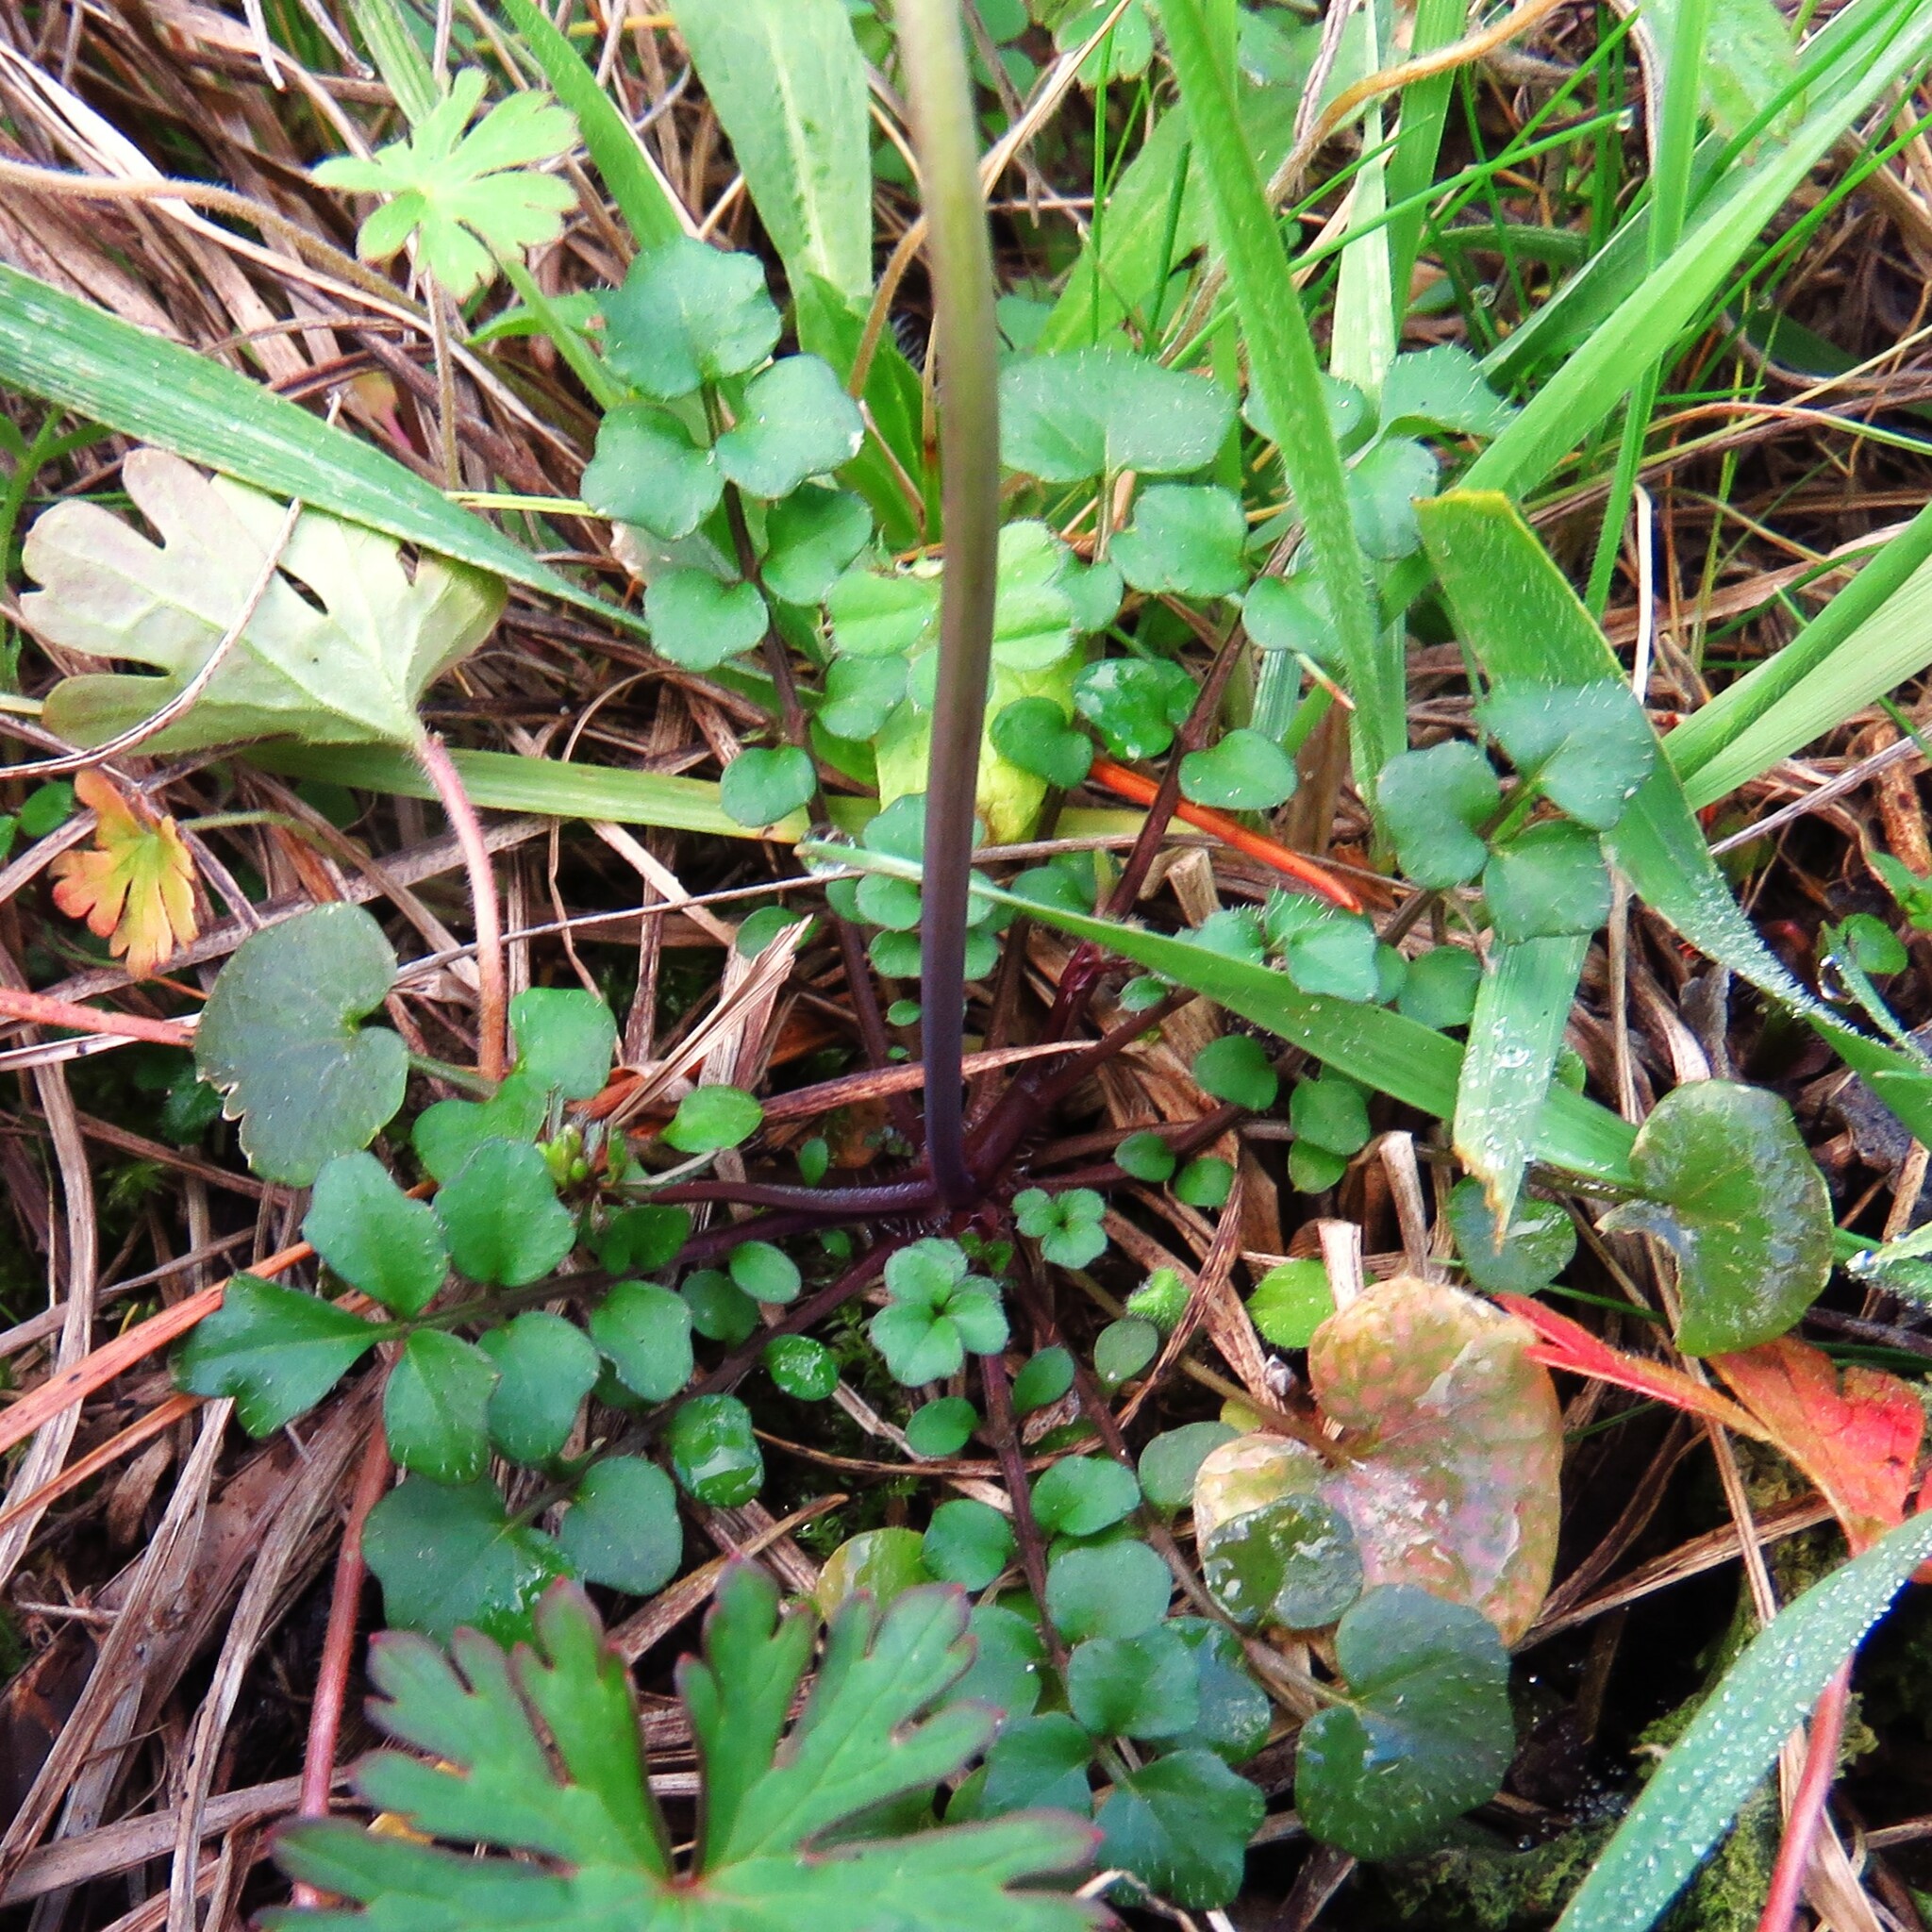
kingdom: Plantae
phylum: Tracheophyta
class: Magnoliopsida
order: Brassicales
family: Brassicaceae
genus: Cardamine
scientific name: Cardamine hirsuta
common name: Hairy bittercress
